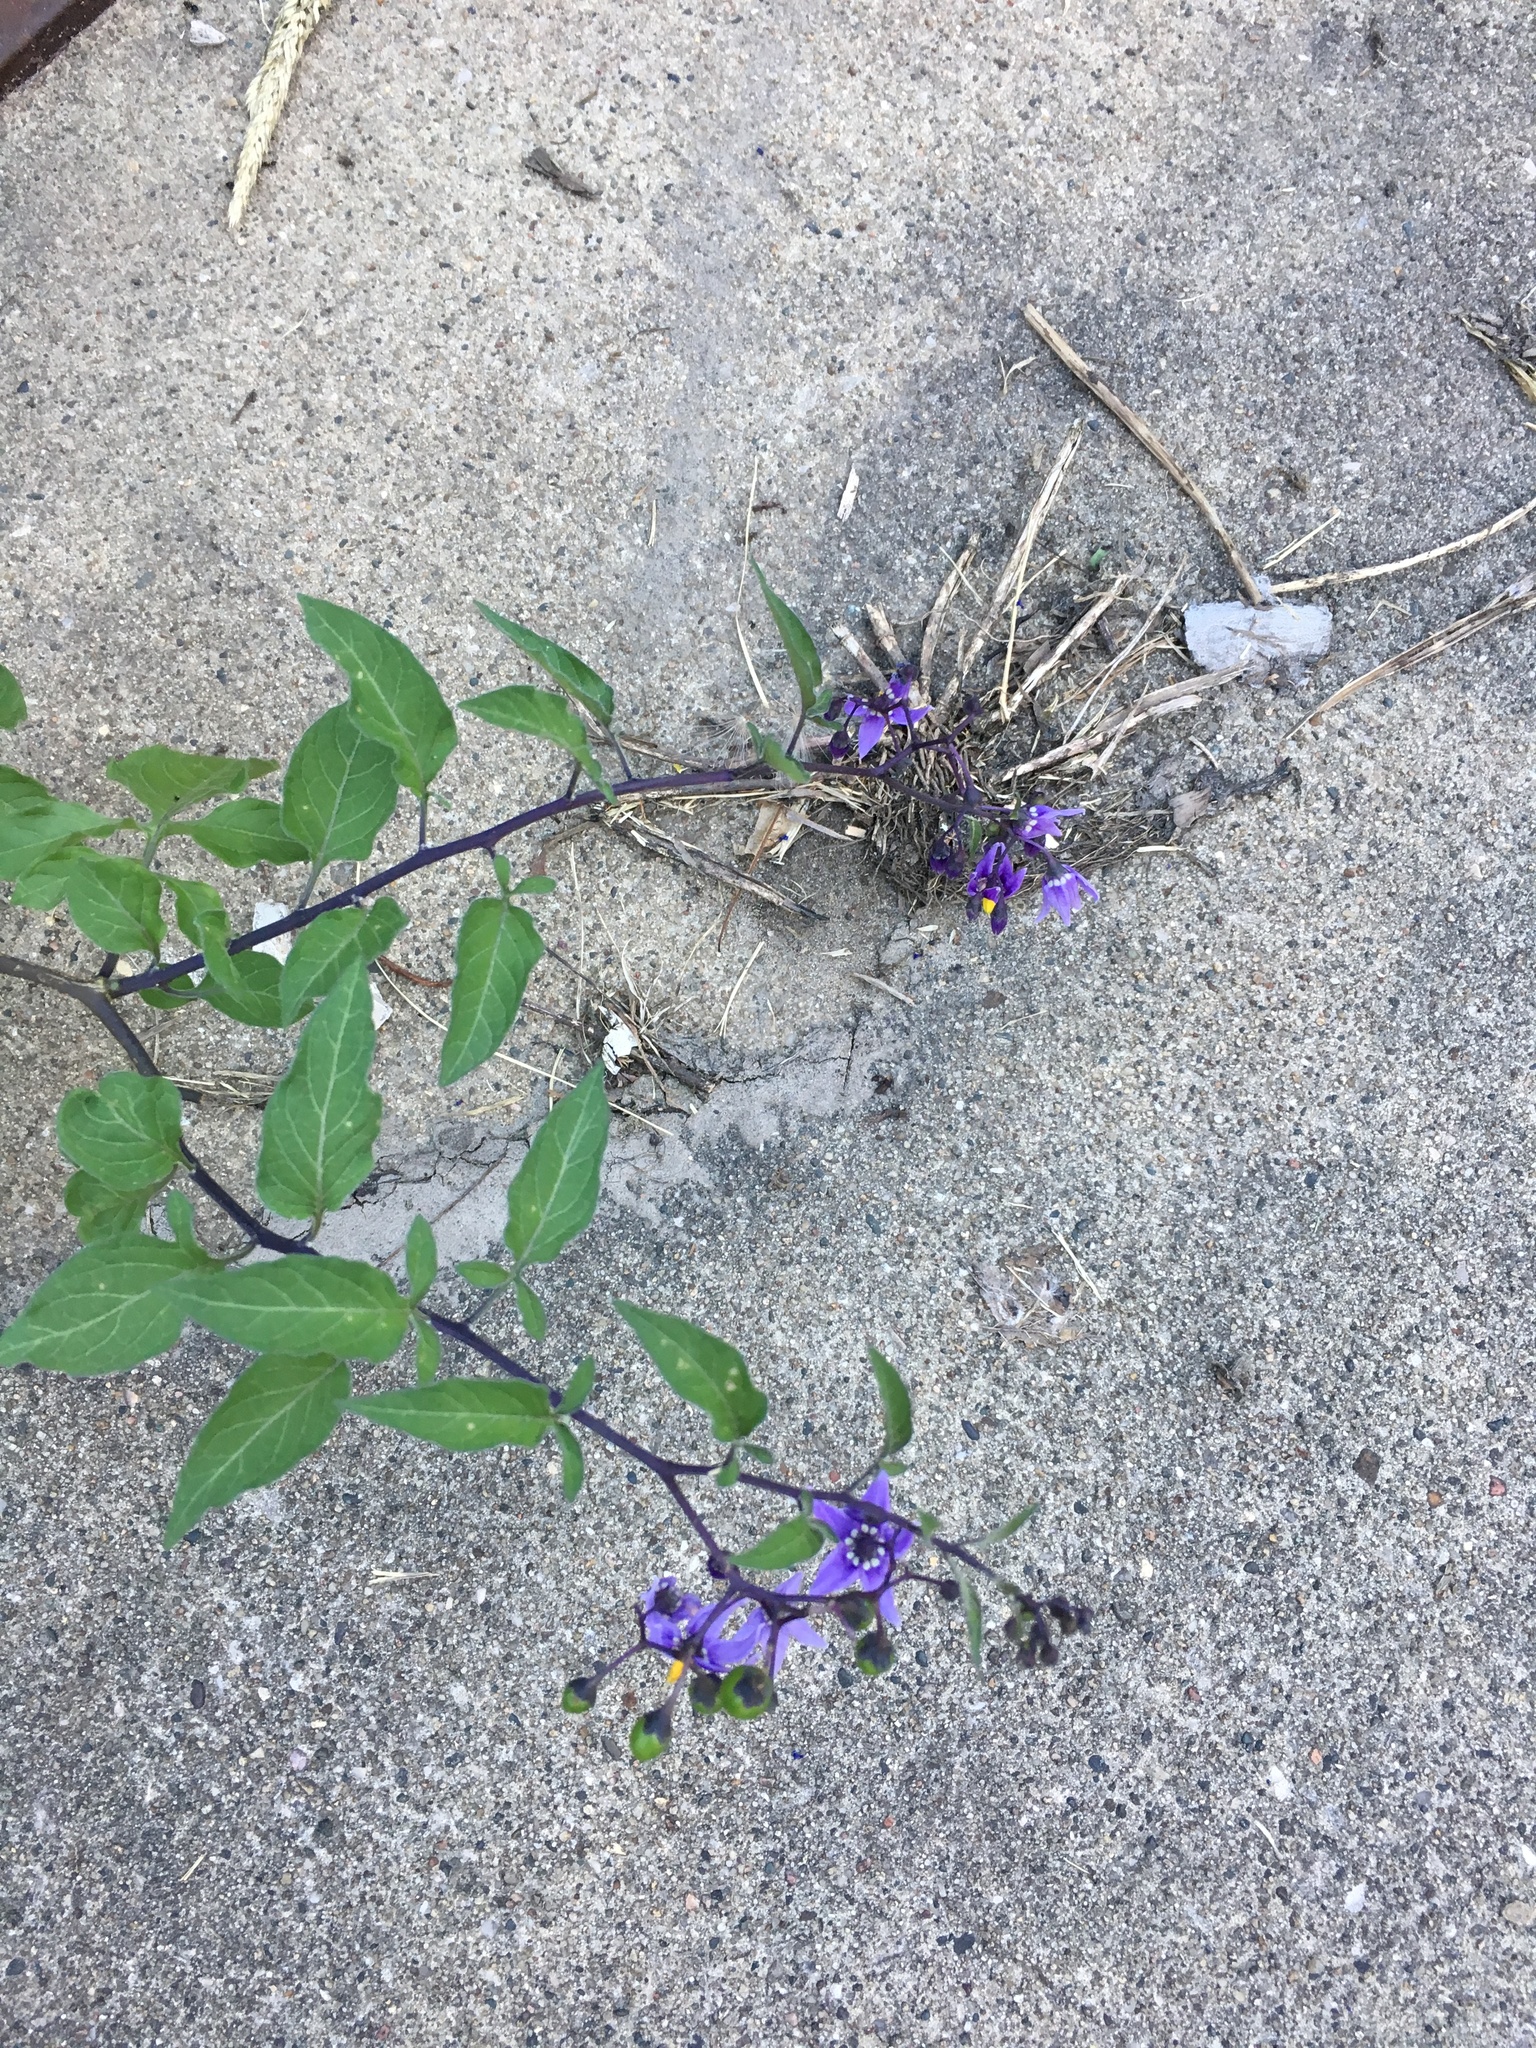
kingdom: Plantae
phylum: Tracheophyta
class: Magnoliopsida
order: Solanales
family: Solanaceae
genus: Solanum
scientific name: Solanum dulcamara
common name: Climbing nightshade
